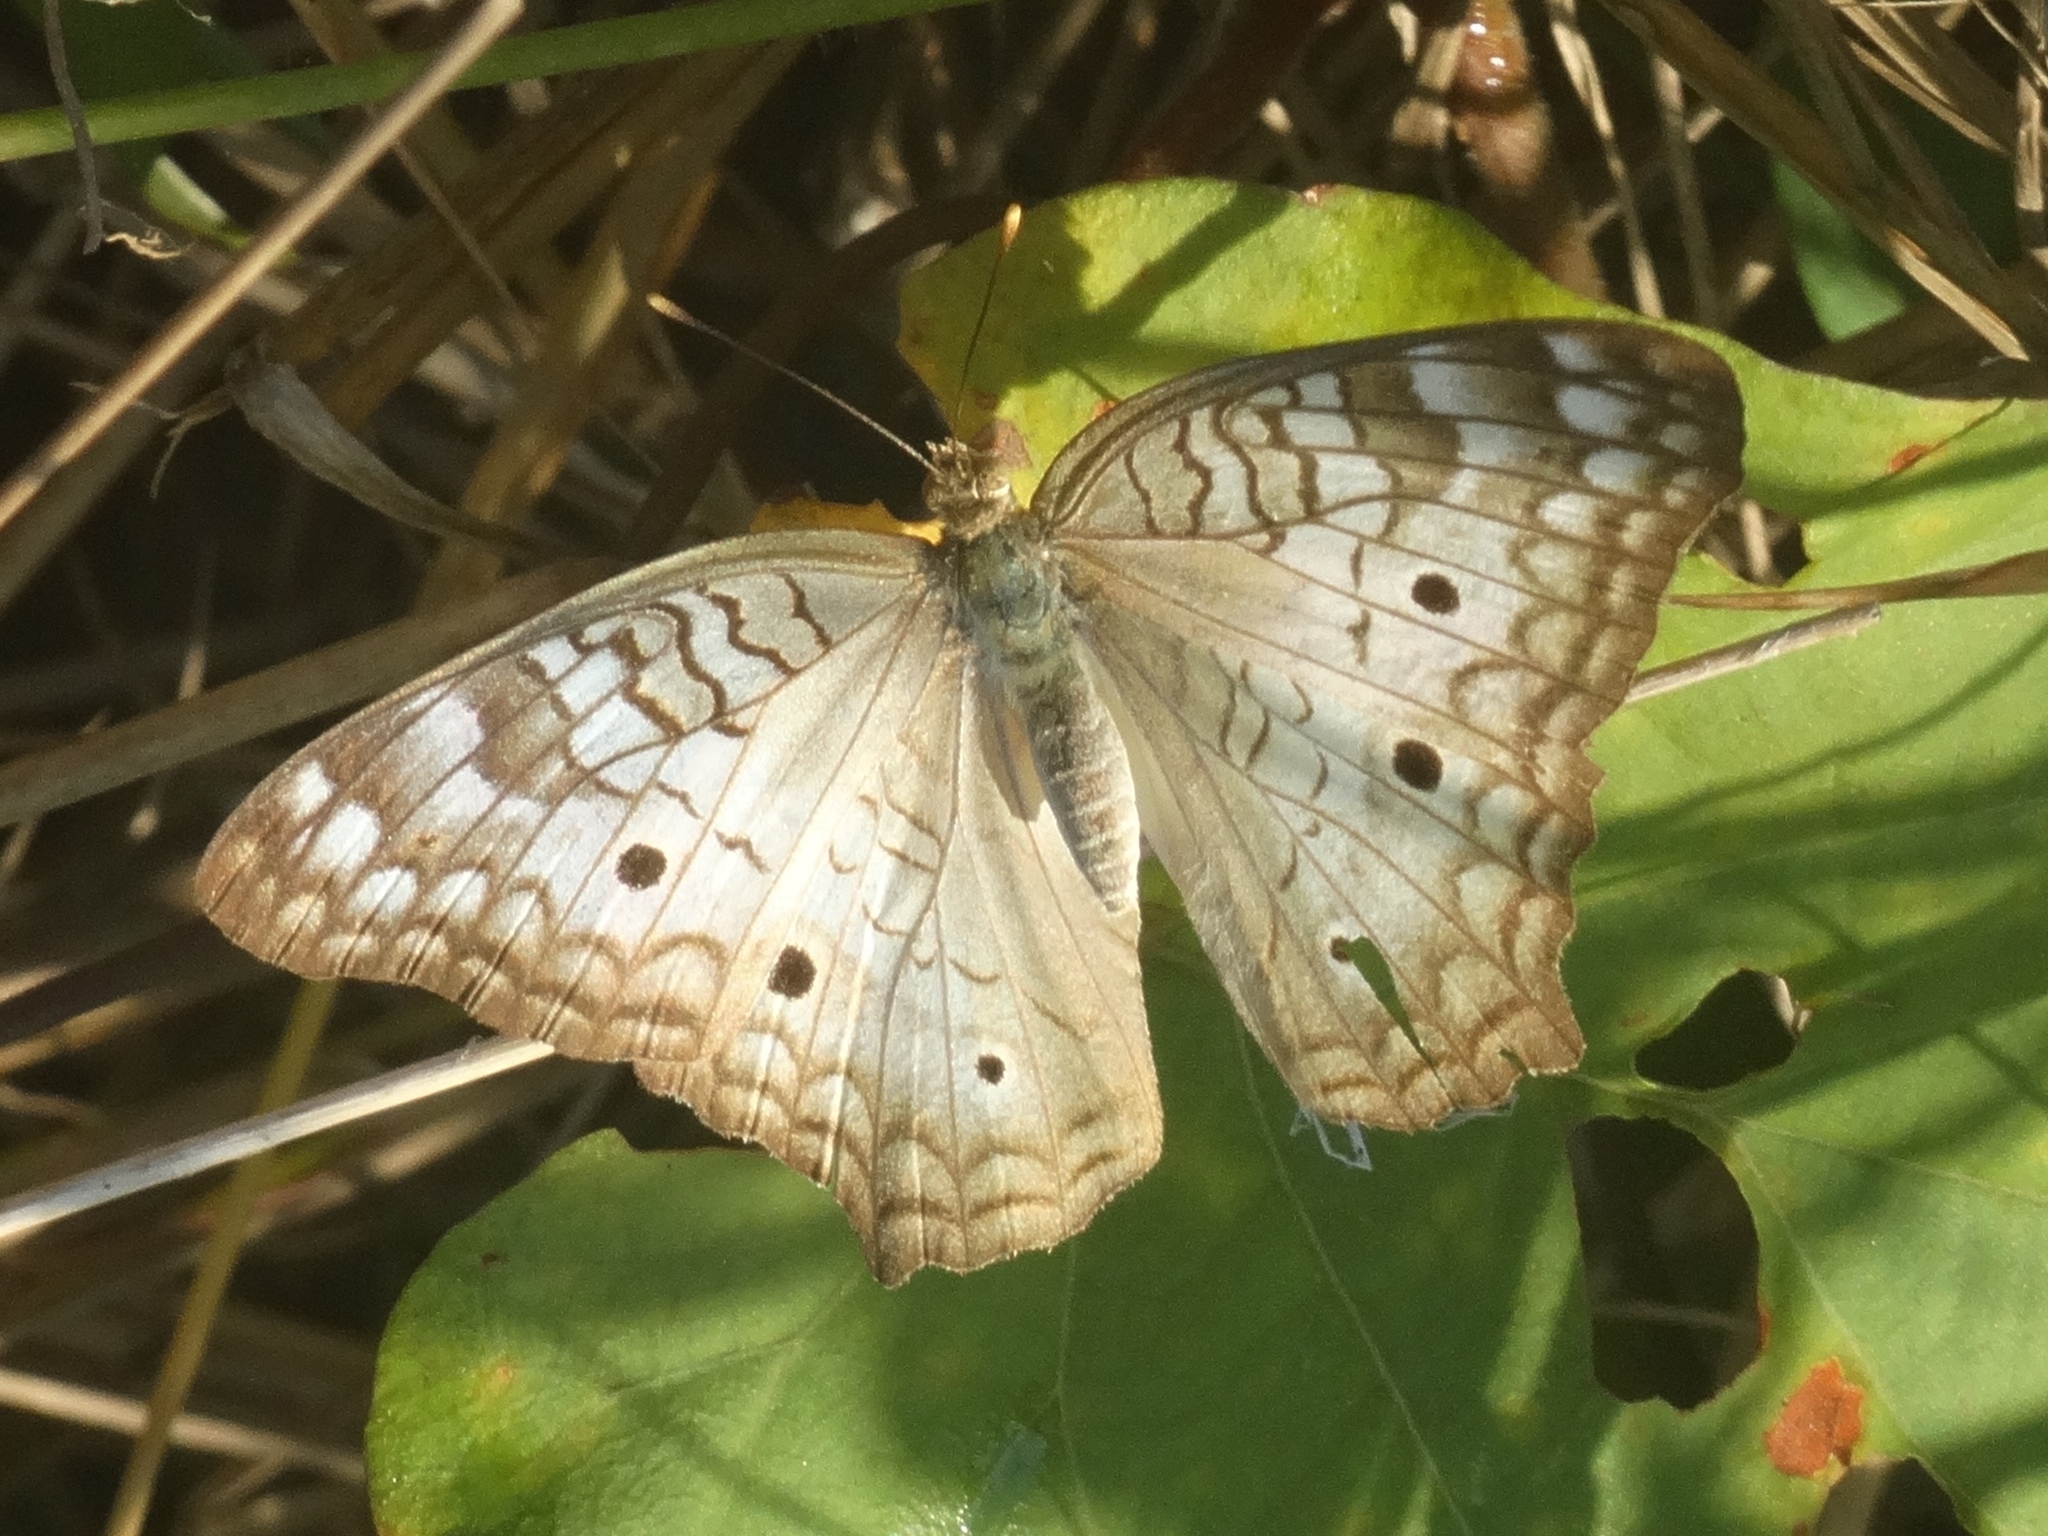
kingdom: Animalia
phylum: Arthropoda
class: Insecta
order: Lepidoptera
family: Nymphalidae
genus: Anartia
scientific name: Anartia jatrophae
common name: White peacock
